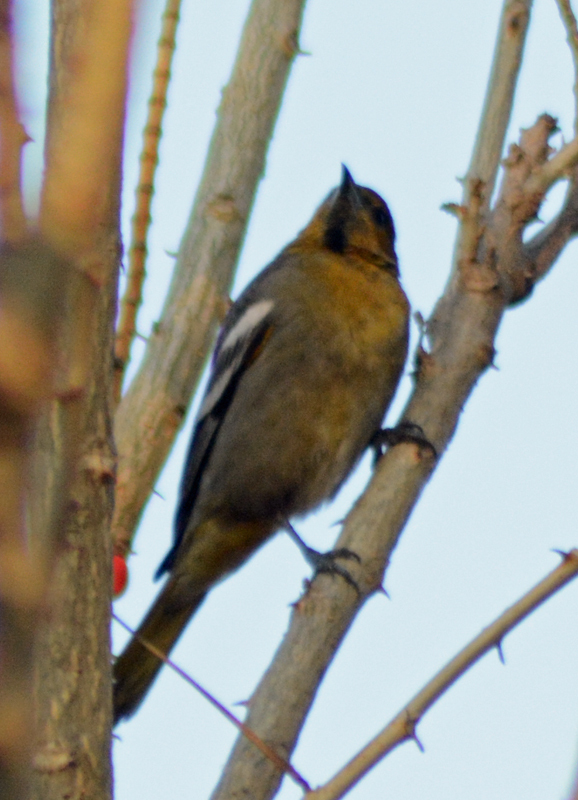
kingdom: Animalia
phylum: Chordata
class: Aves
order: Passeriformes
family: Icteridae
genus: Icterus
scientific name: Icterus abeillei
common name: Black-backed oriole
